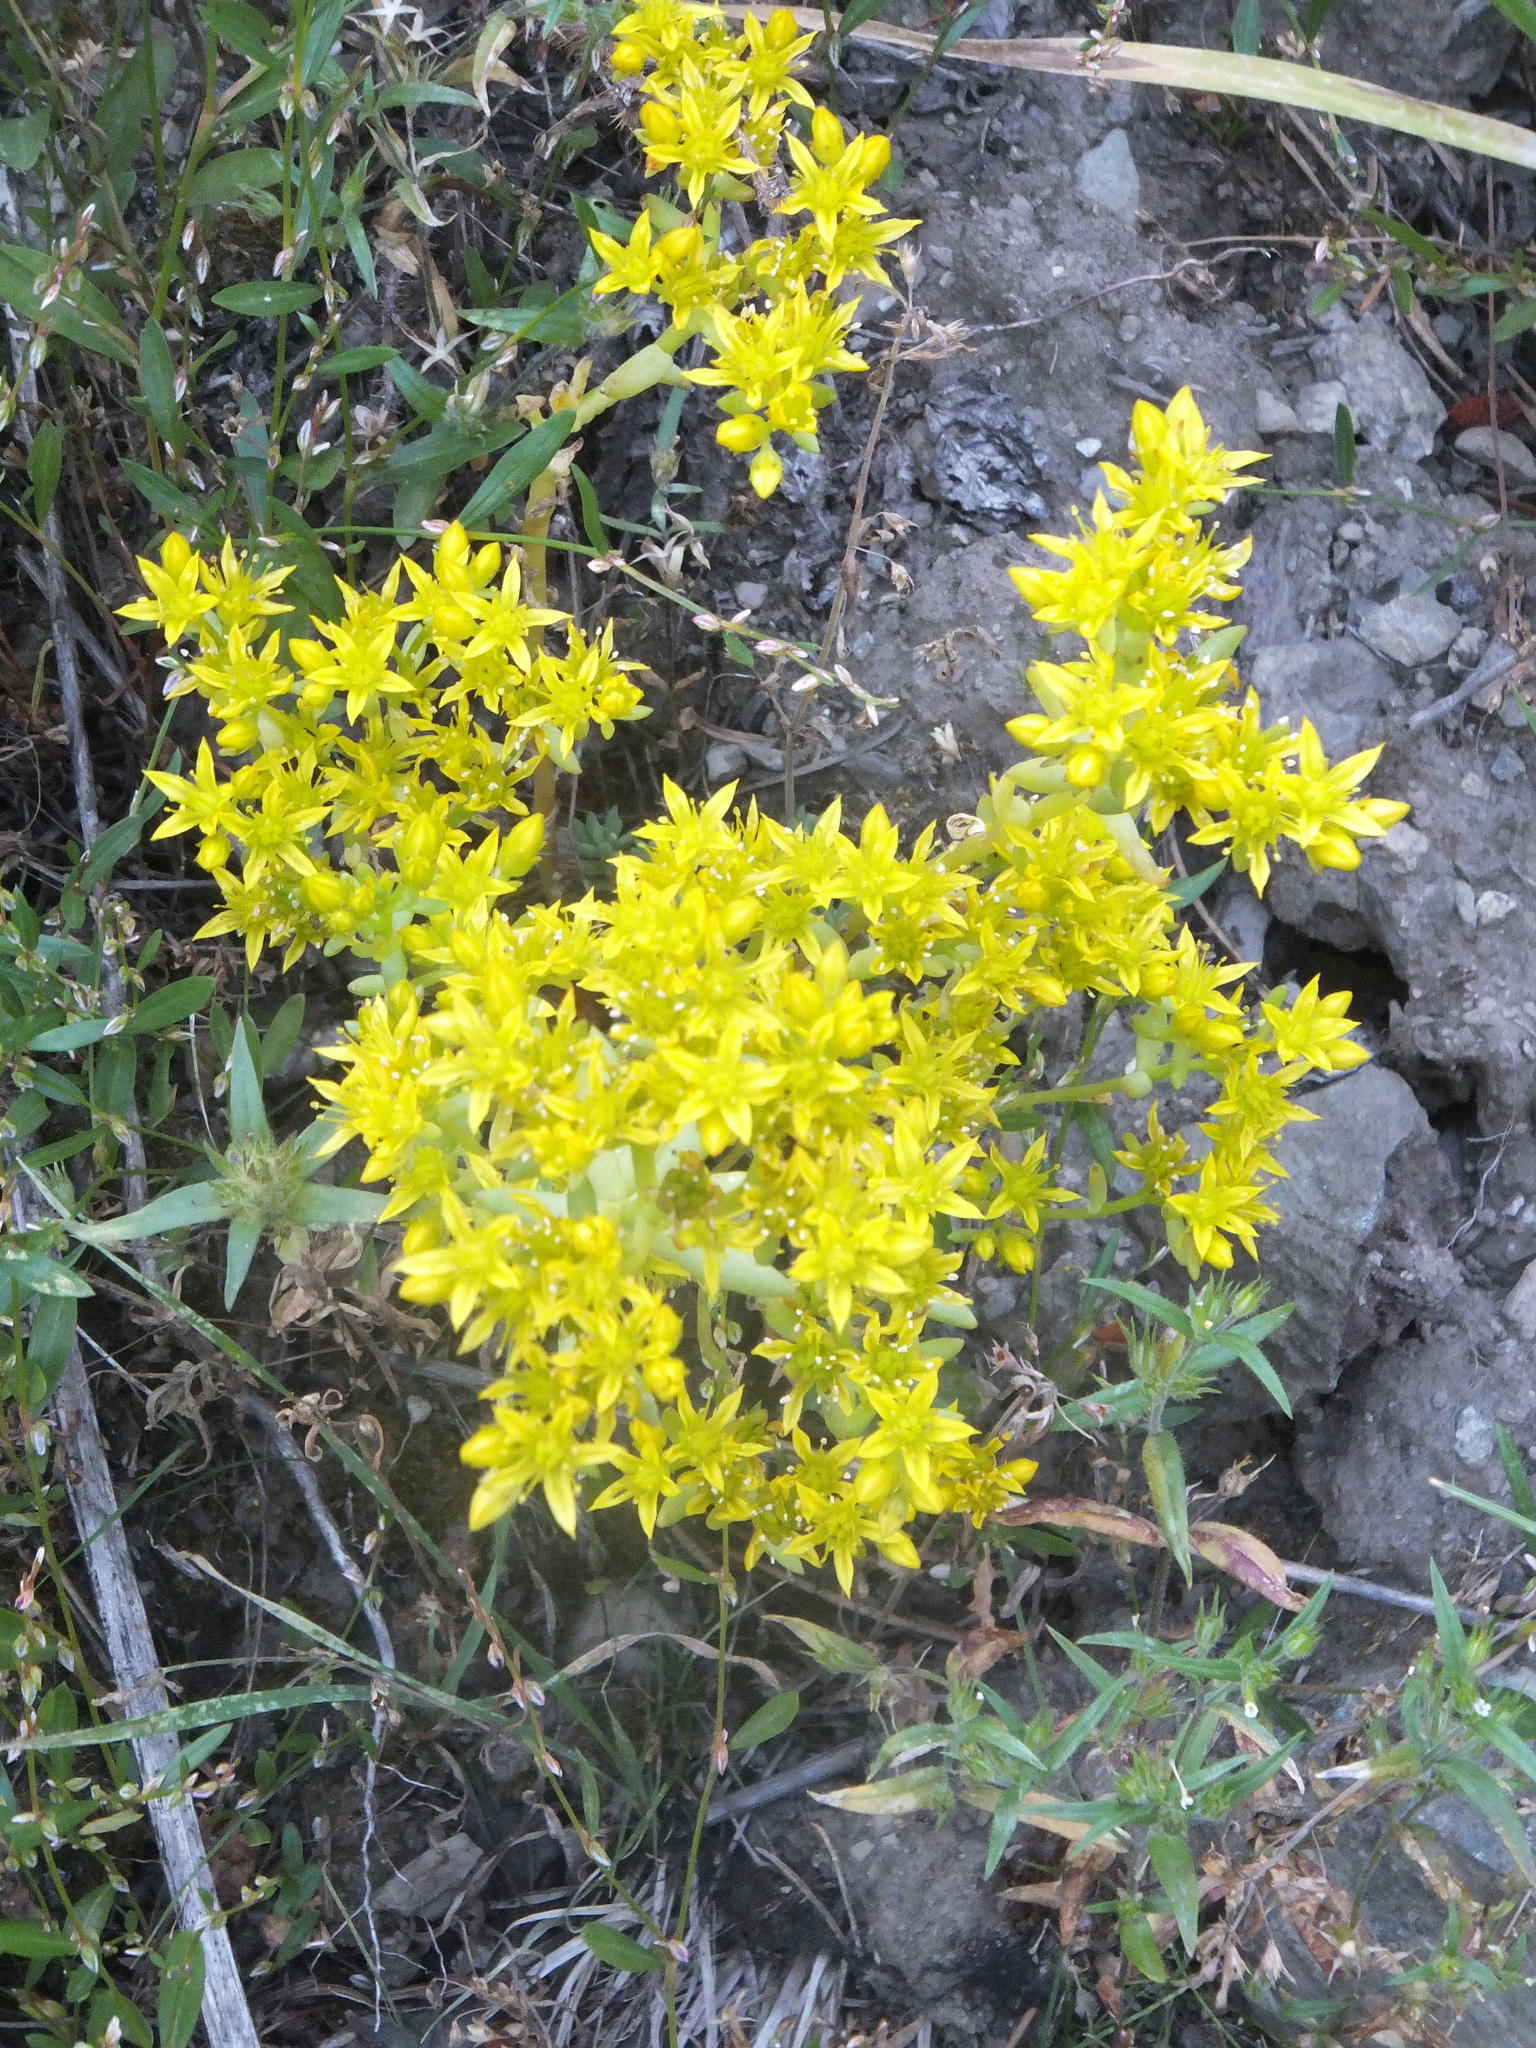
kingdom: Plantae
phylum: Tracheophyta
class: Magnoliopsida
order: Saxifragales
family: Crassulaceae
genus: Sedum
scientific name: Sedum lanceolatum
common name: Common stonecrop
